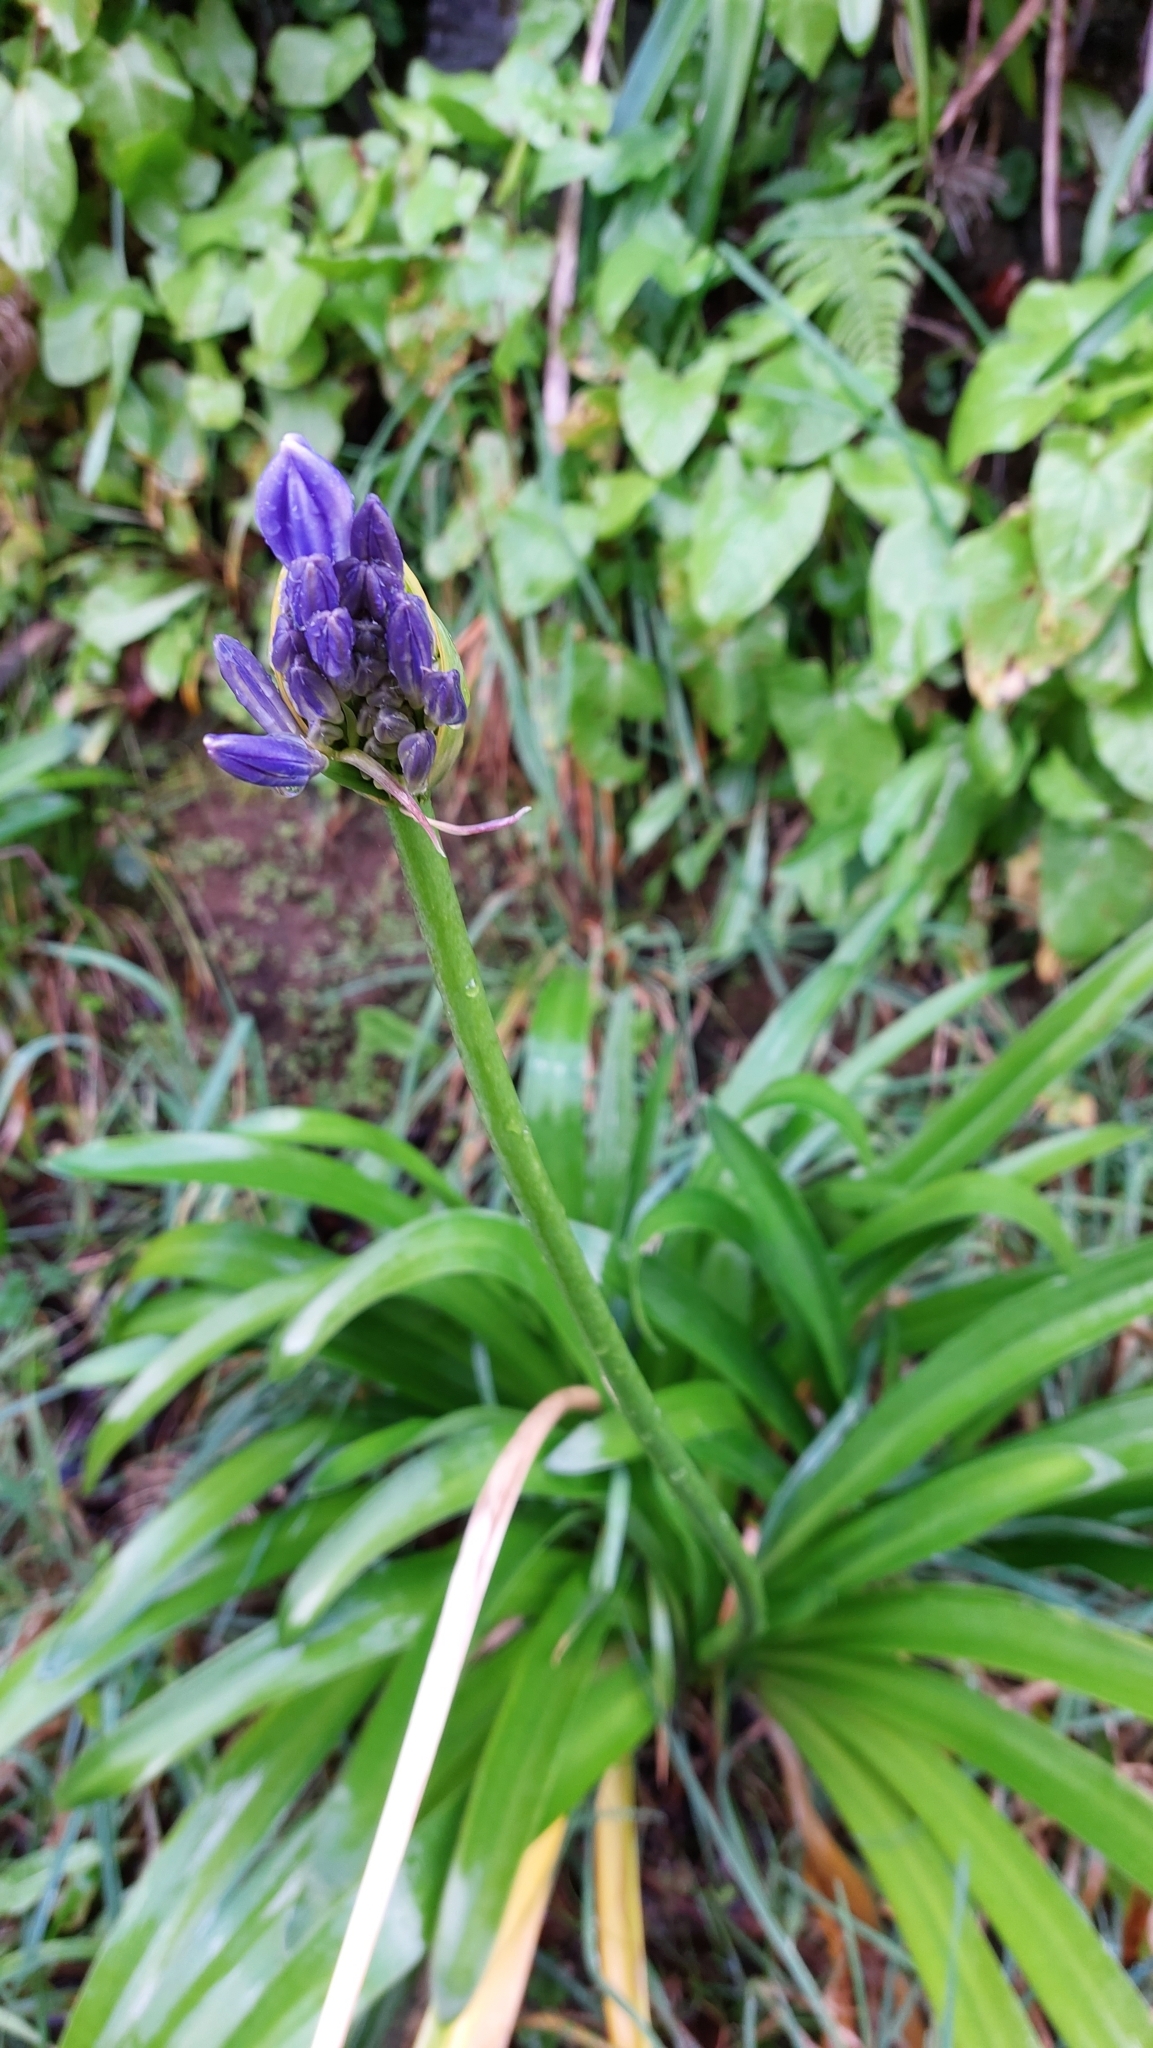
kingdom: Plantae
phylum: Tracheophyta
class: Liliopsida
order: Asparagales
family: Amaryllidaceae
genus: Agapanthus
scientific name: Agapanthus praecox
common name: African-lily
